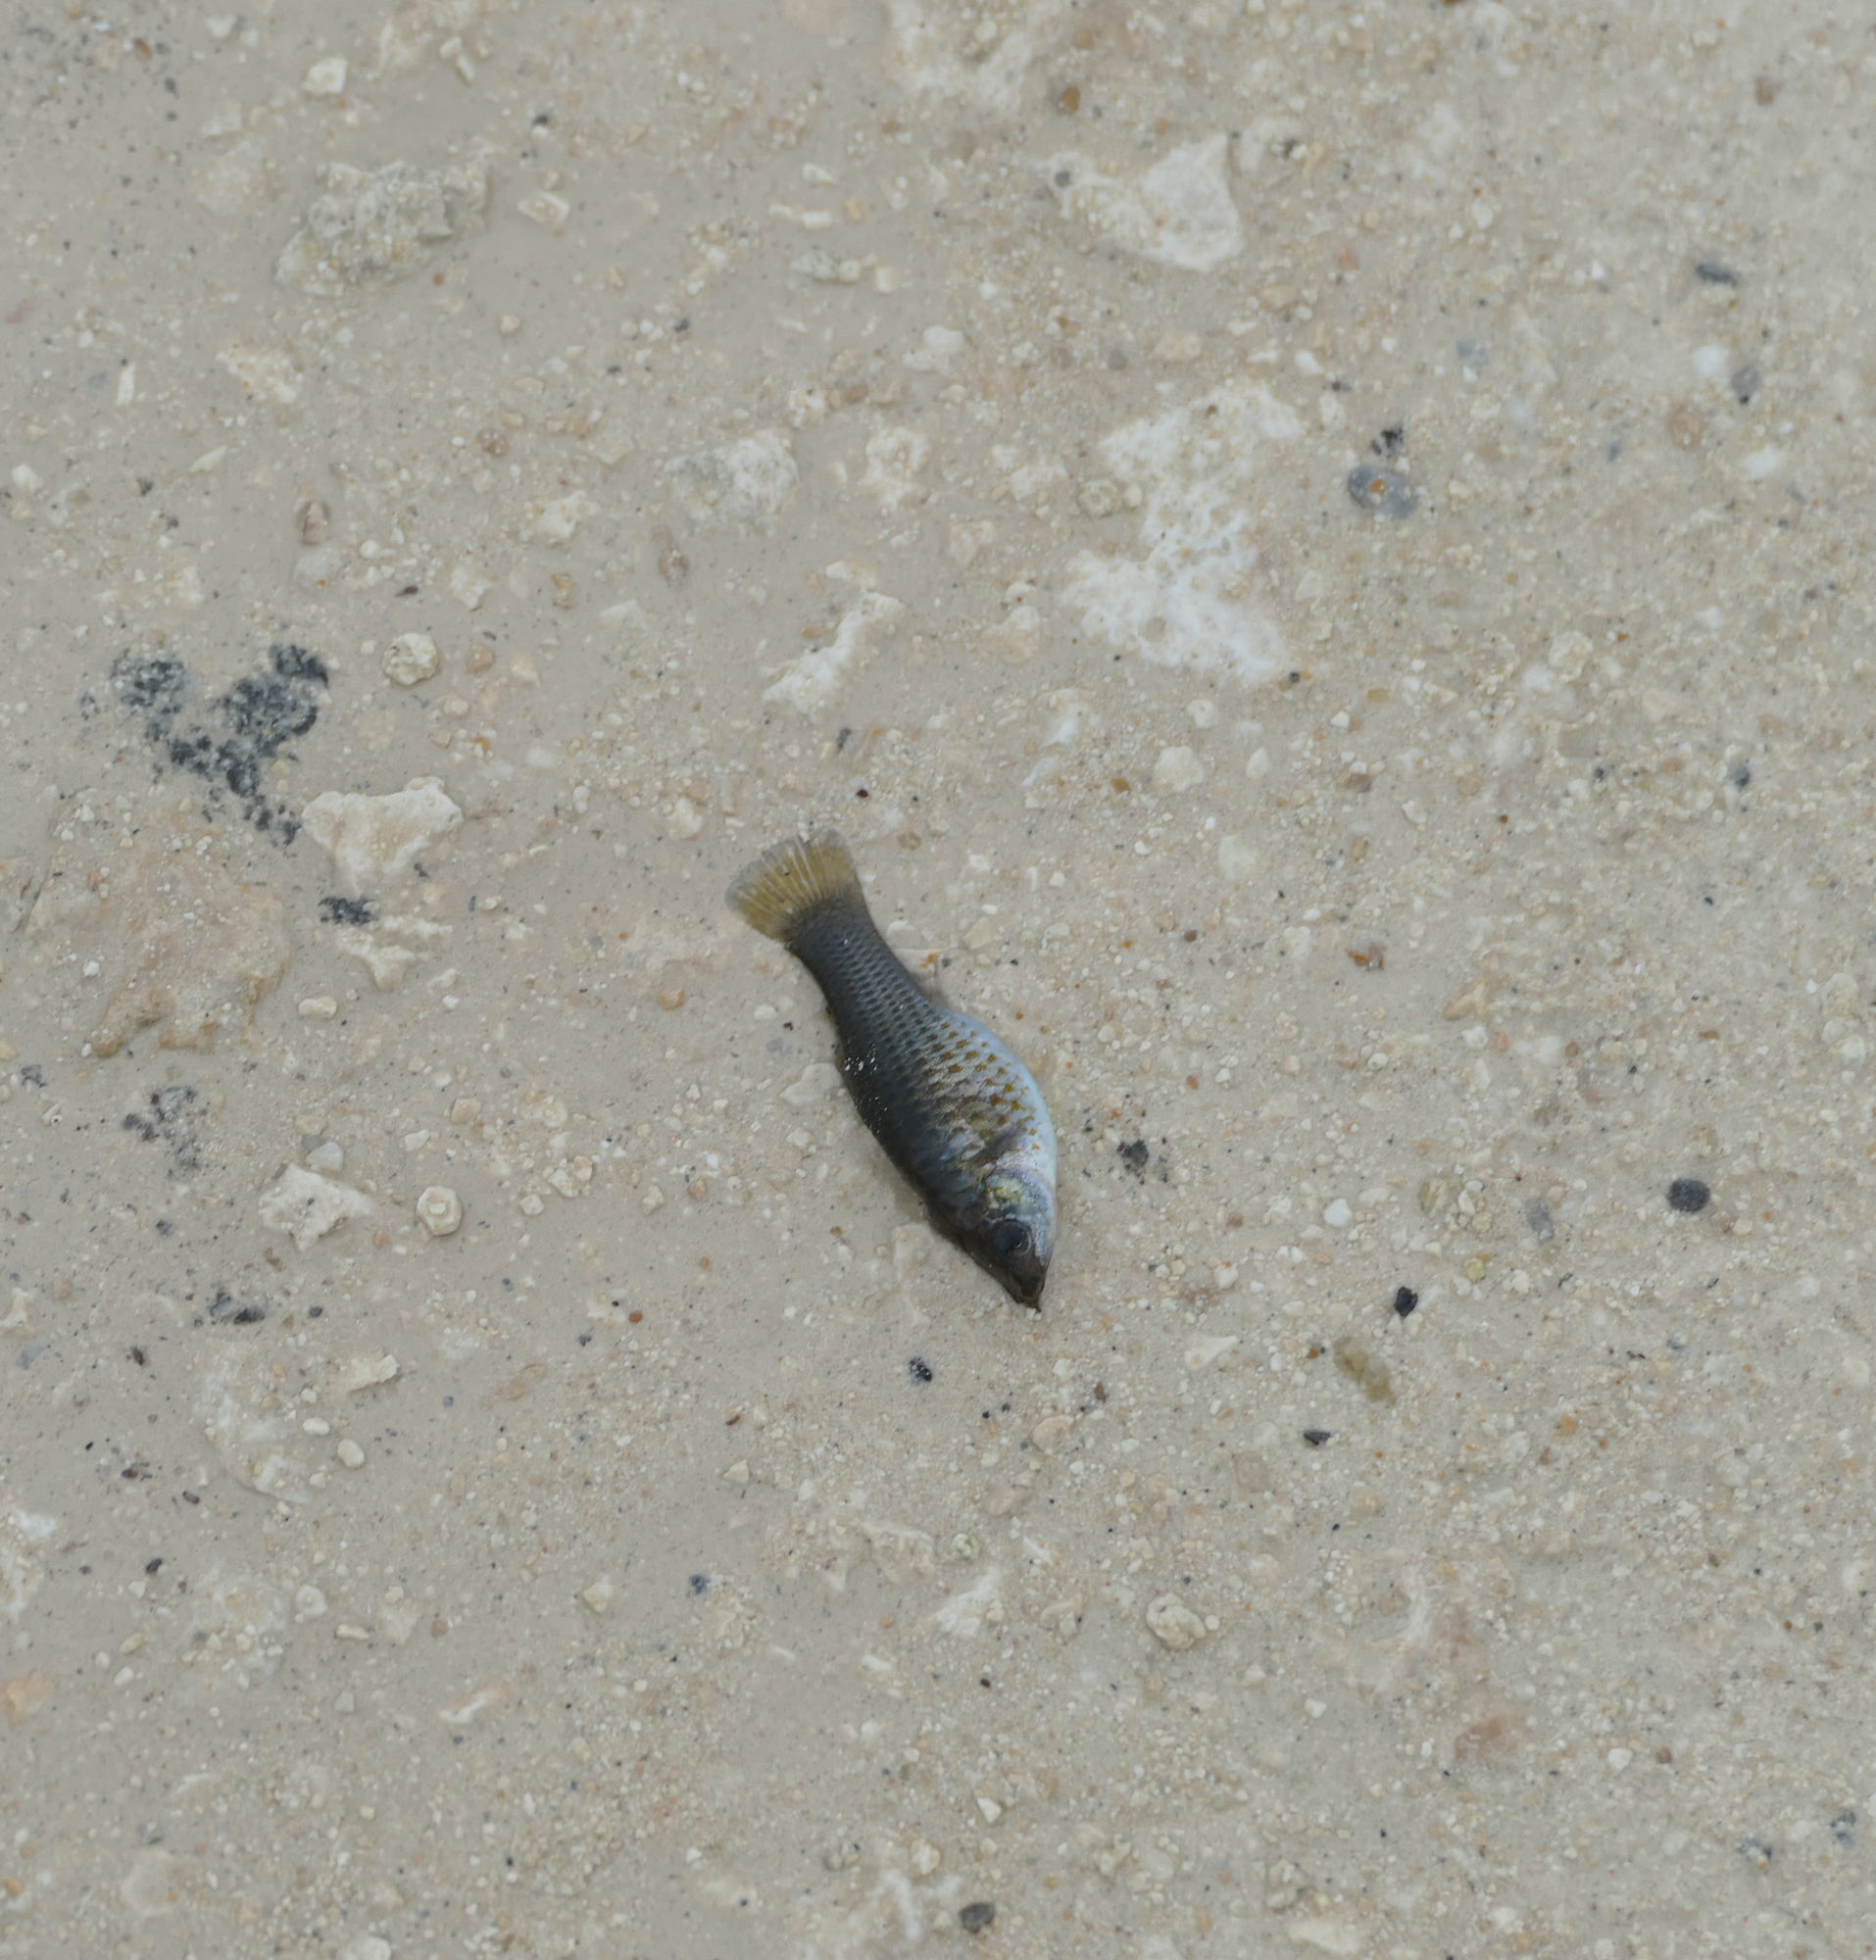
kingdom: Animalia
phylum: Chordata
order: Cyprinodontiformes
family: Poeciliidae
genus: Poecilia
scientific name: Poecilia latipinna
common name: Sailfin molly
